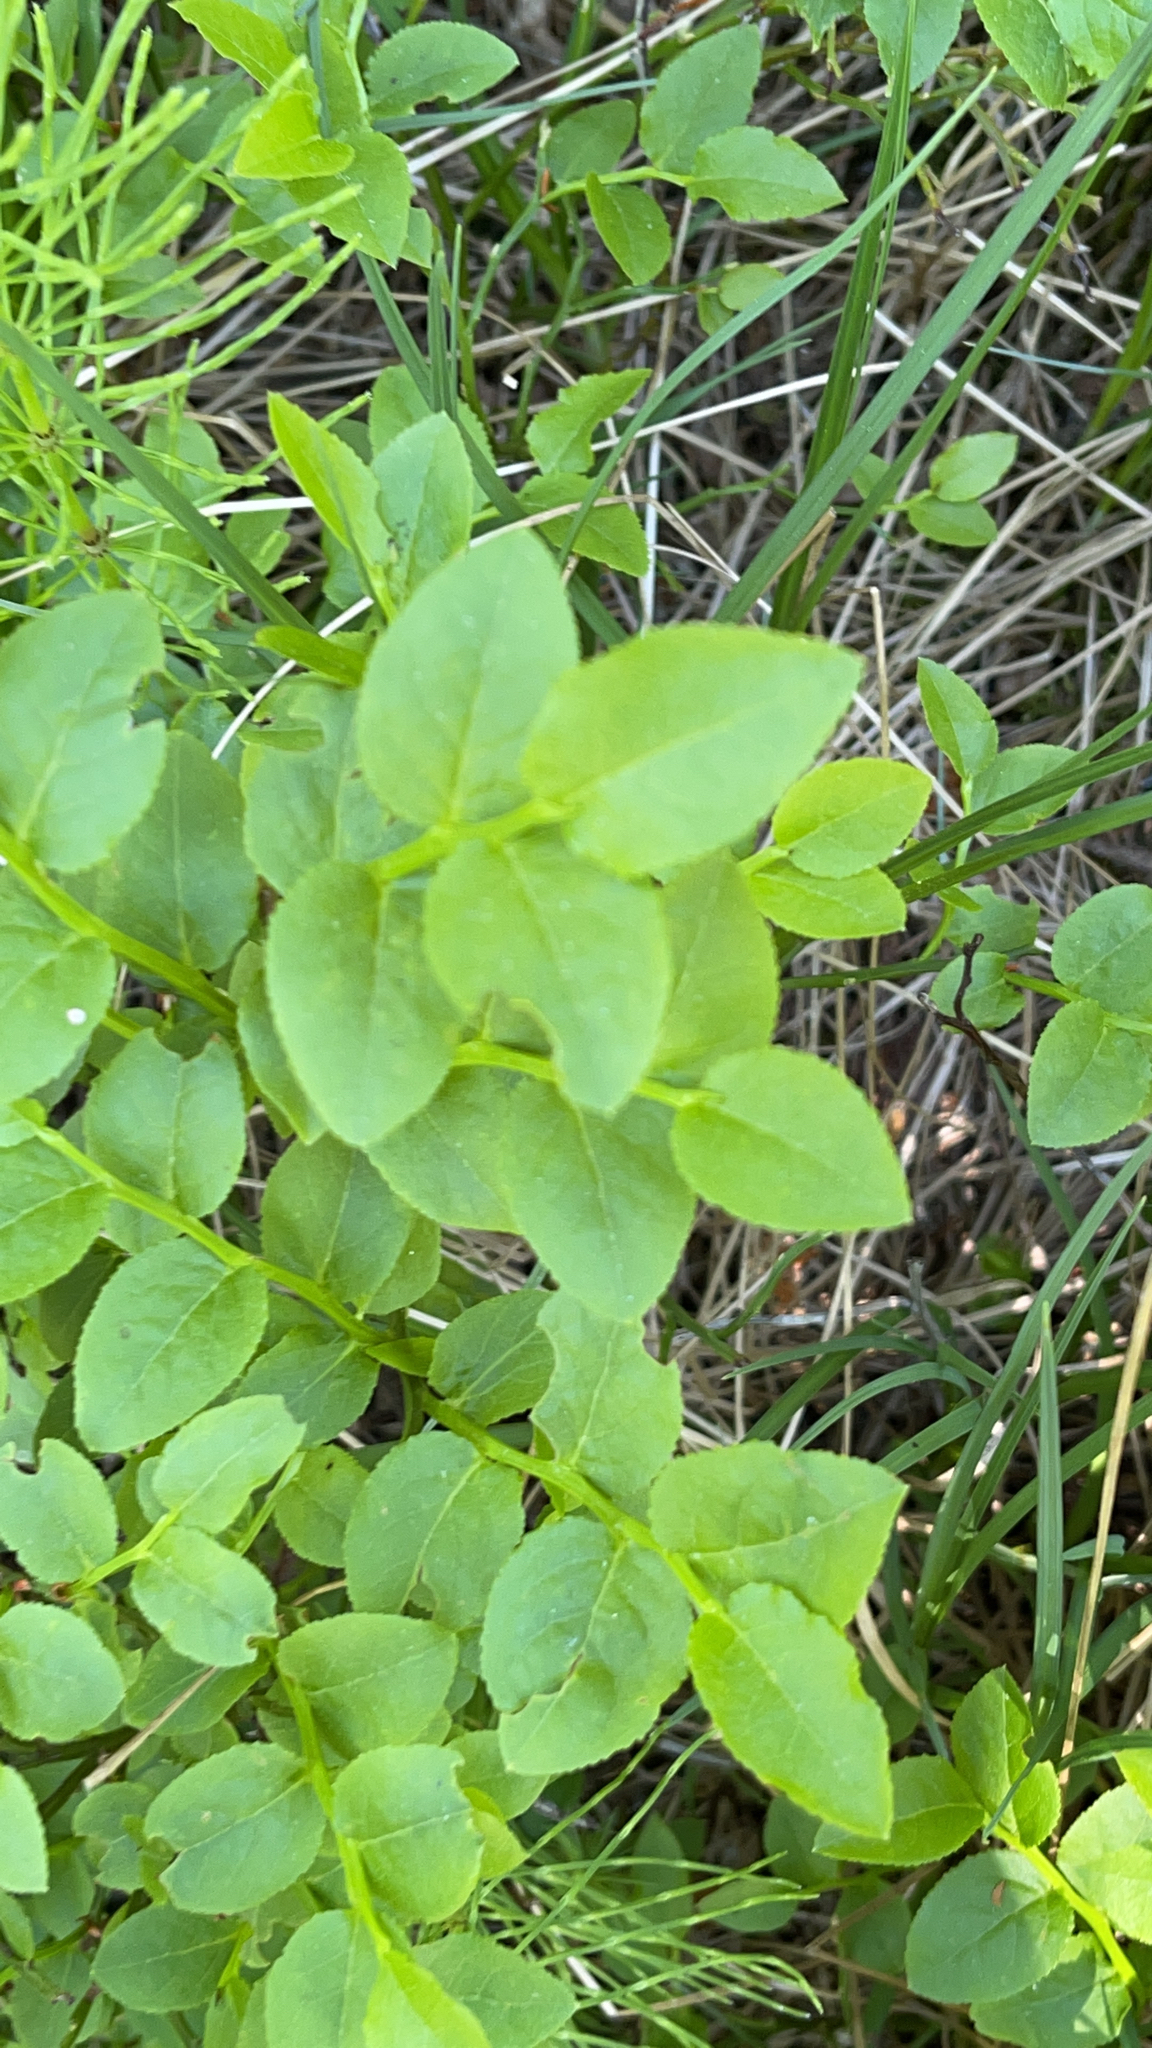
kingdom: Plantae
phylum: Tracheophyta
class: Magnoliopsida
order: Ericales
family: Ericaceae
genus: Vaccinium
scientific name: Vaccinium myrtillus
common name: Bilberry
